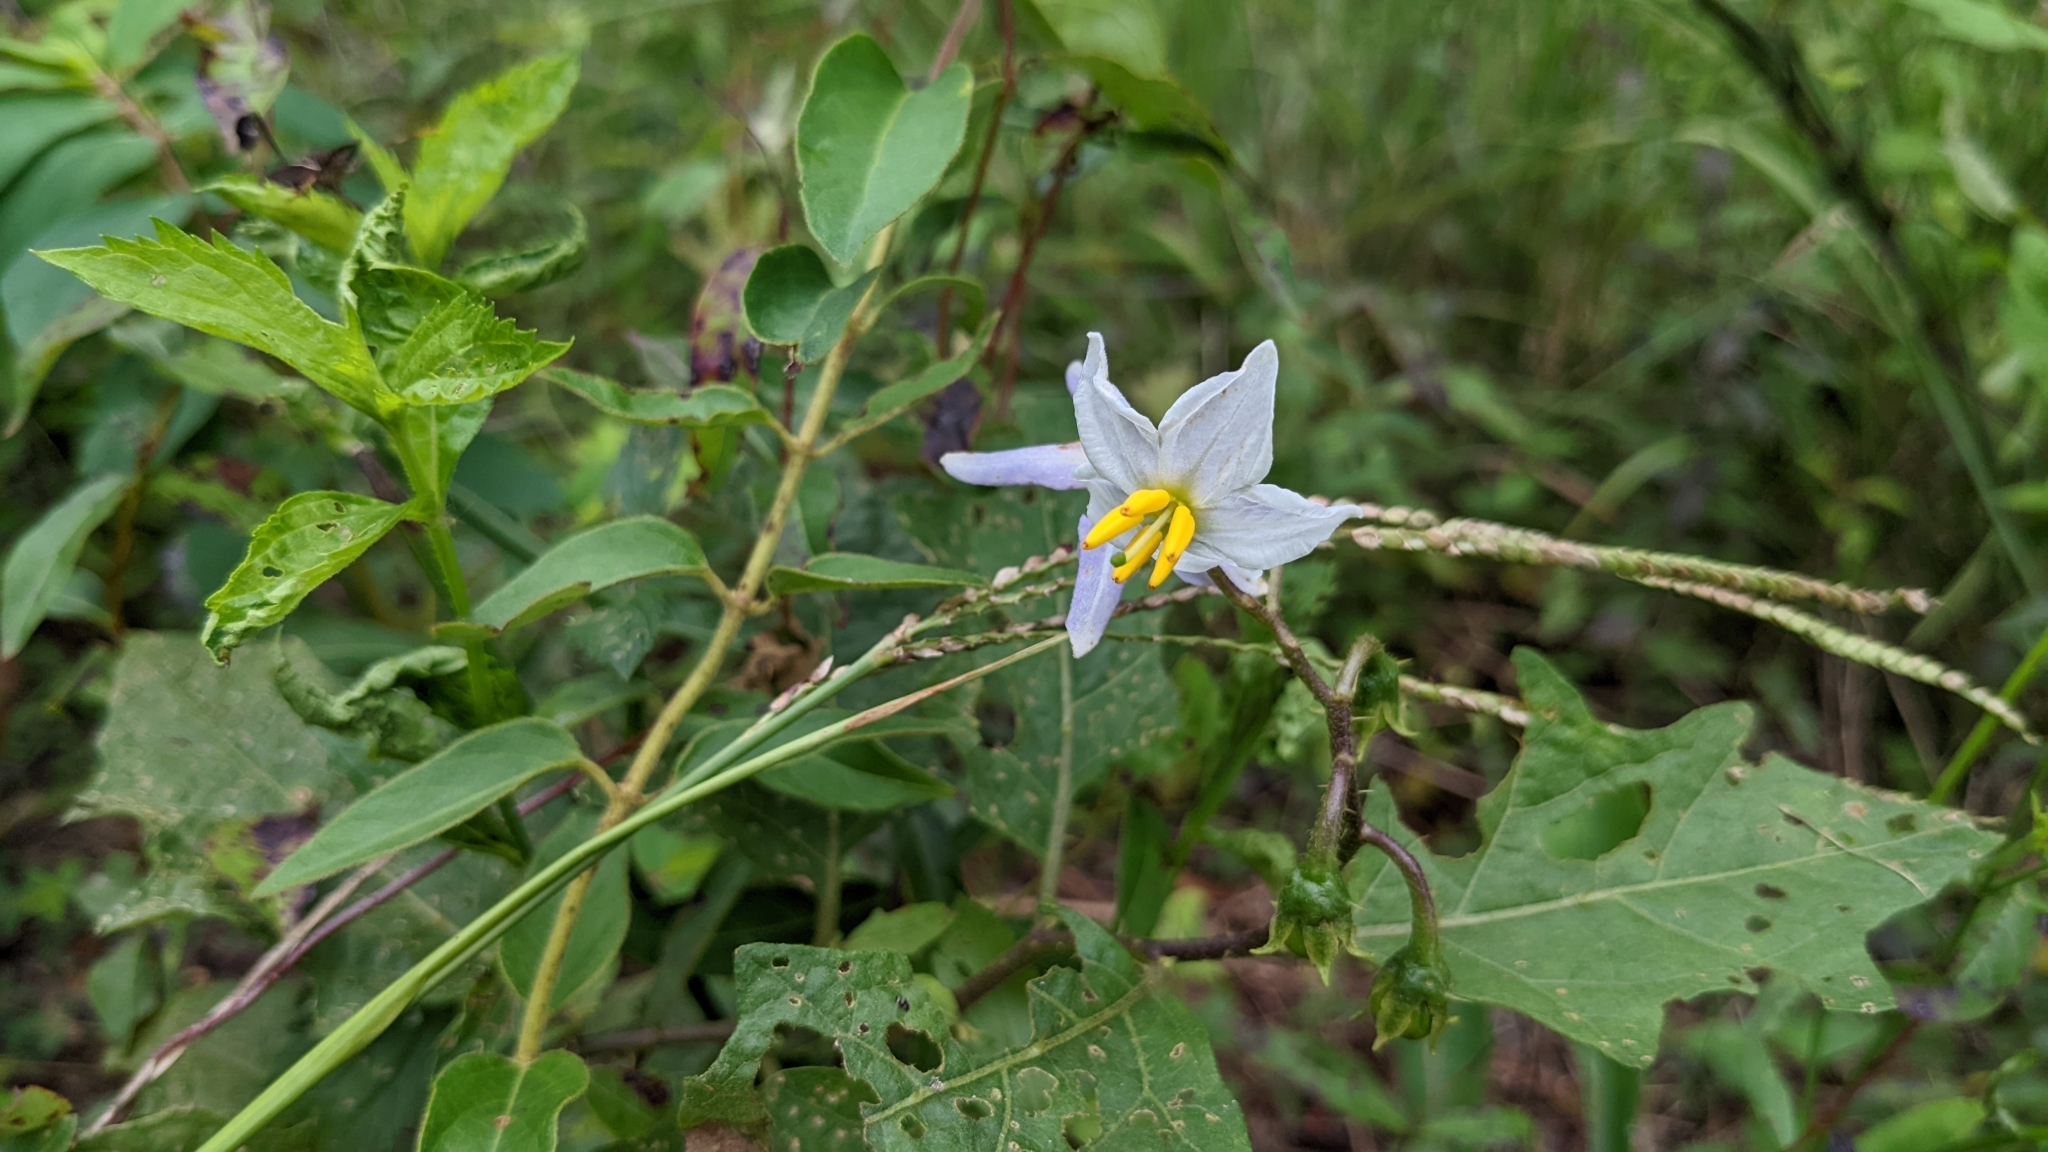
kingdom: Plantae
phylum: Tracheophyta
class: Magnoliopsida
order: Solanales
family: Solanaceae
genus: Solanum
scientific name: Solanum carolinense
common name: Horse-nettle
